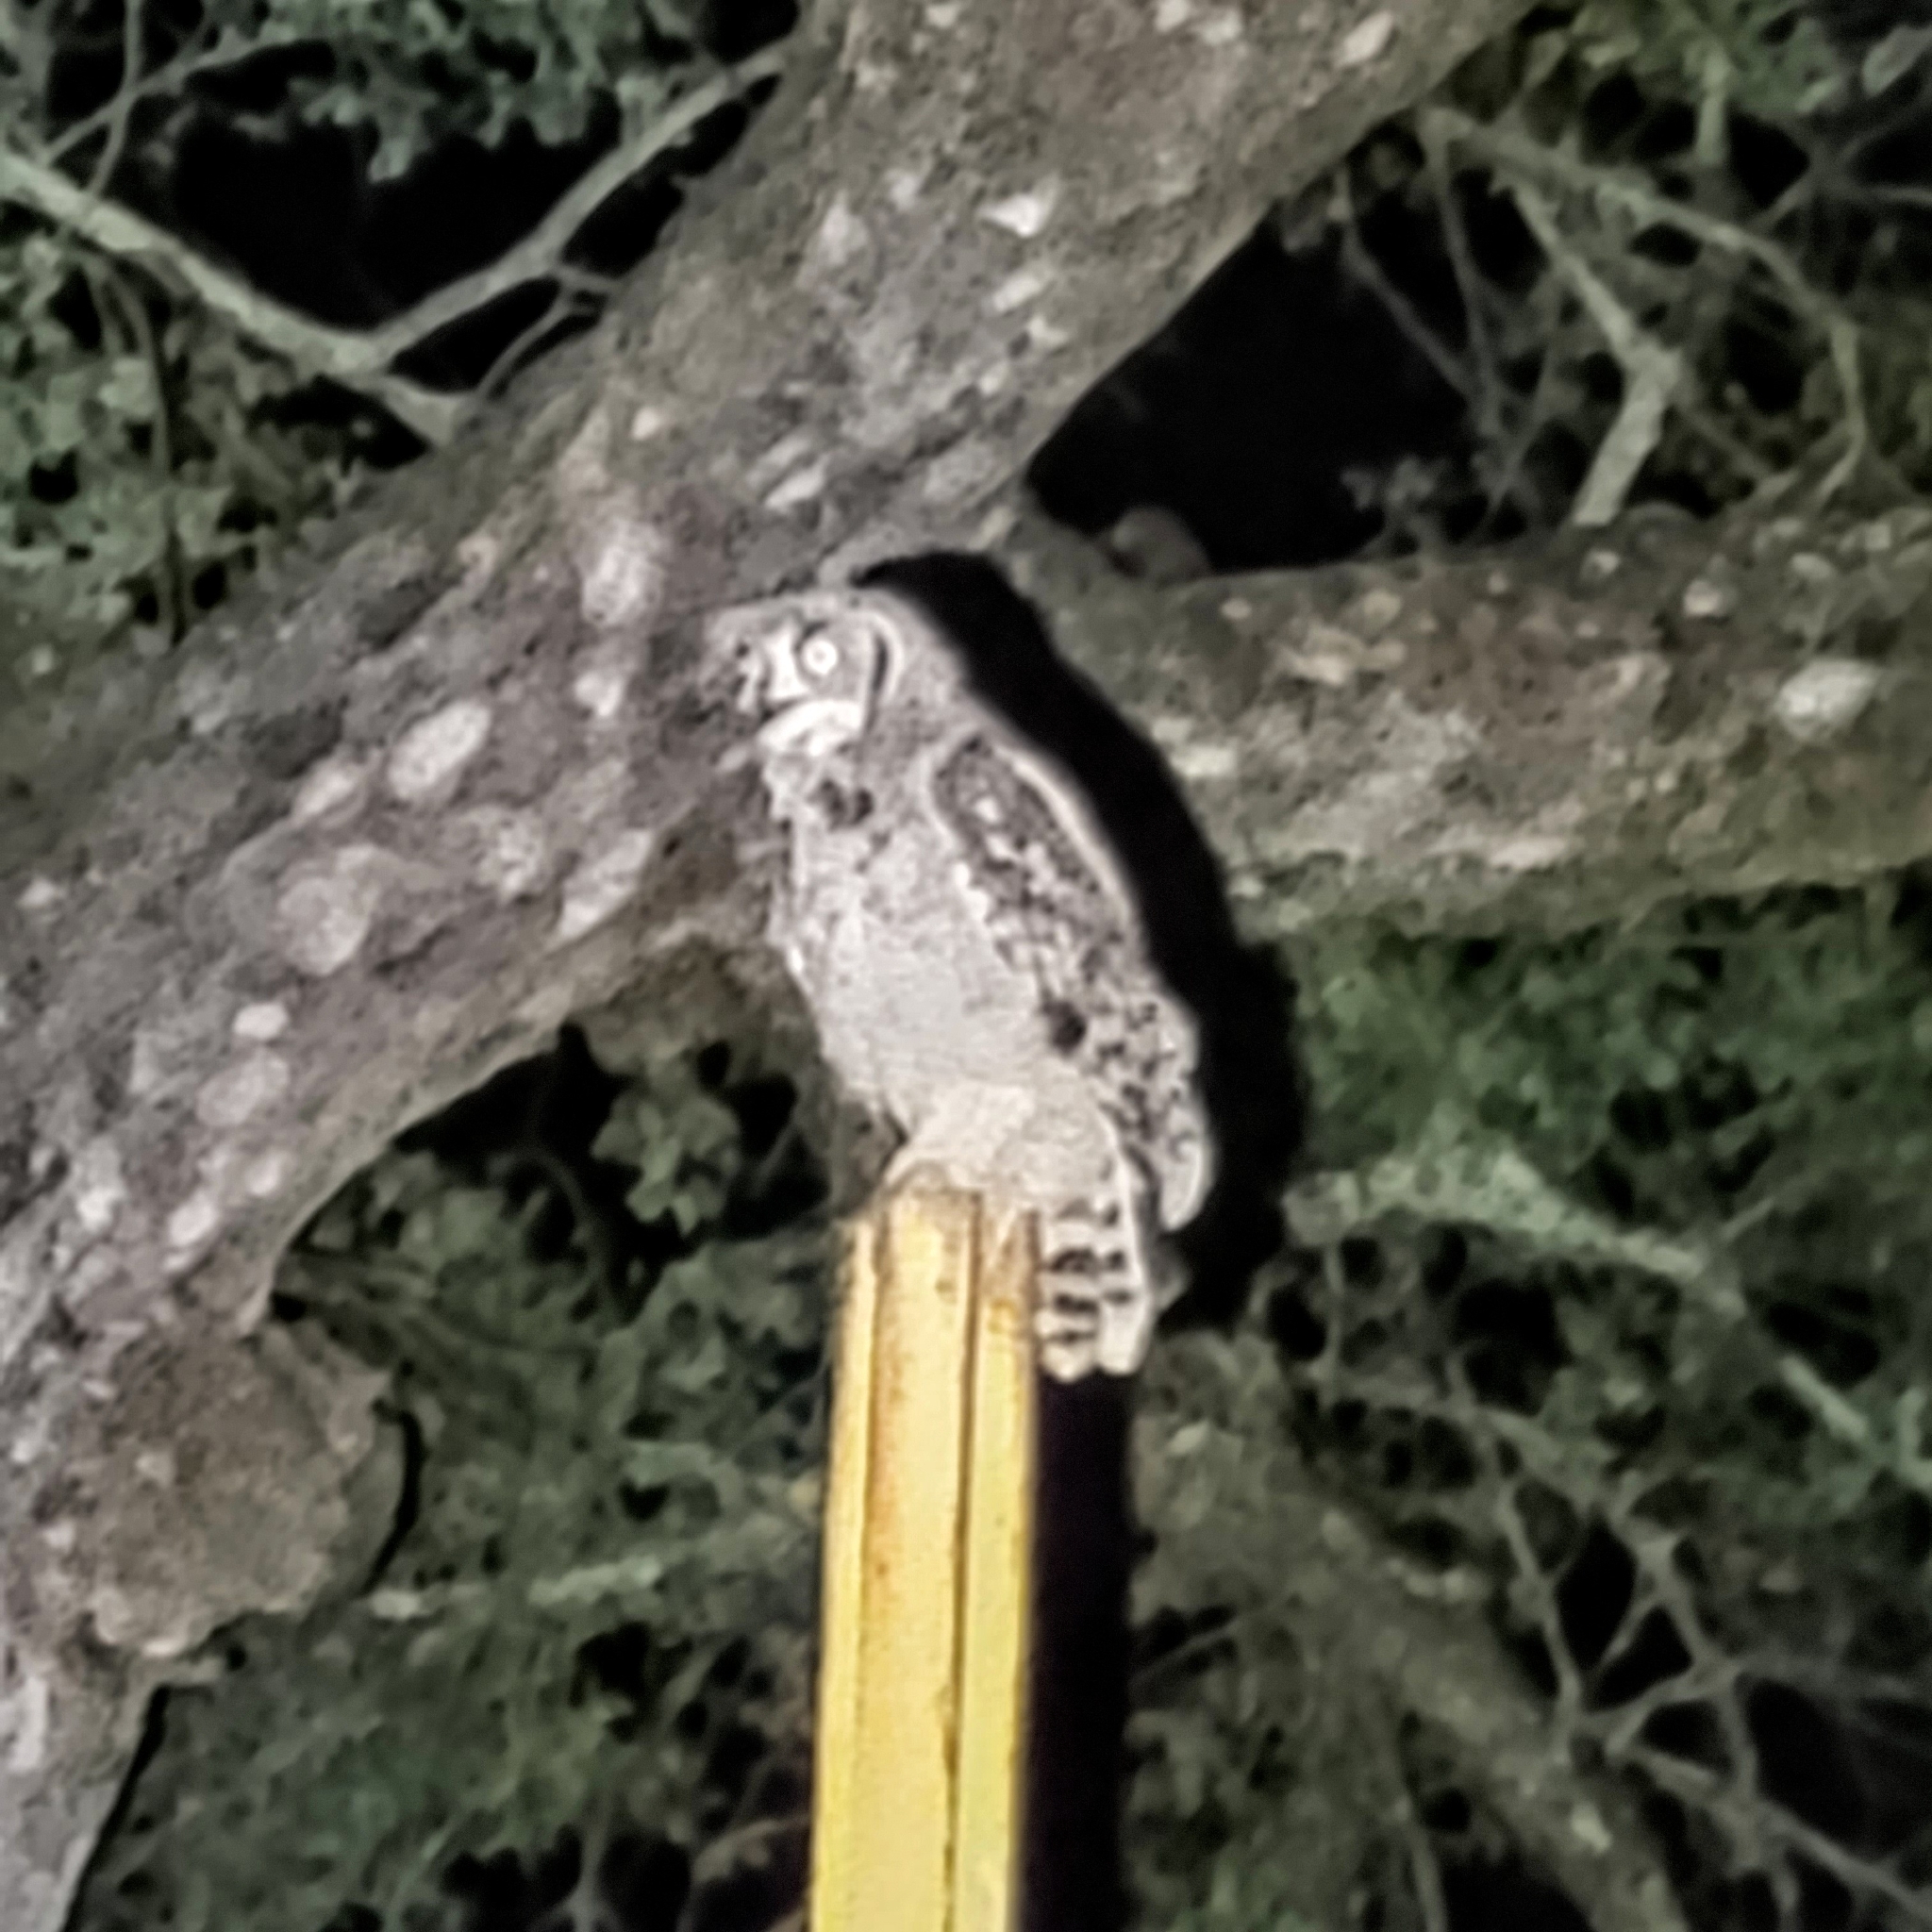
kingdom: Animalia
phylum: Chordata
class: Aves
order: Strigiformes
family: Strigidae
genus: Bubo
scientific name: Bubo africanus
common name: Spotted eagle-owl
